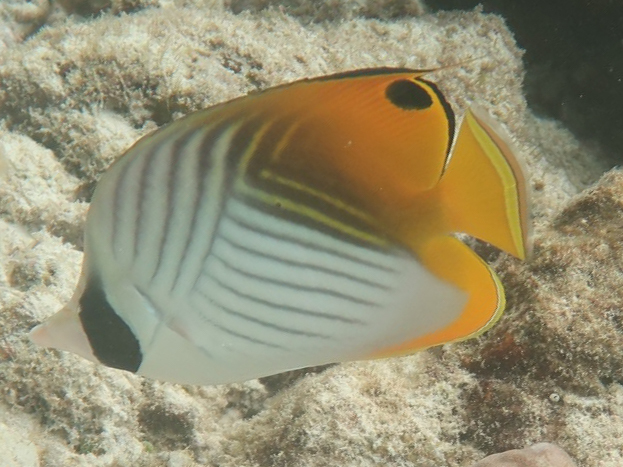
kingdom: Animalia
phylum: Chordata
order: Perciformes
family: Chaetodontidae
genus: Chaetodon
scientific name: Chaetodon auriga
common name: Threadfin butterflyfish
